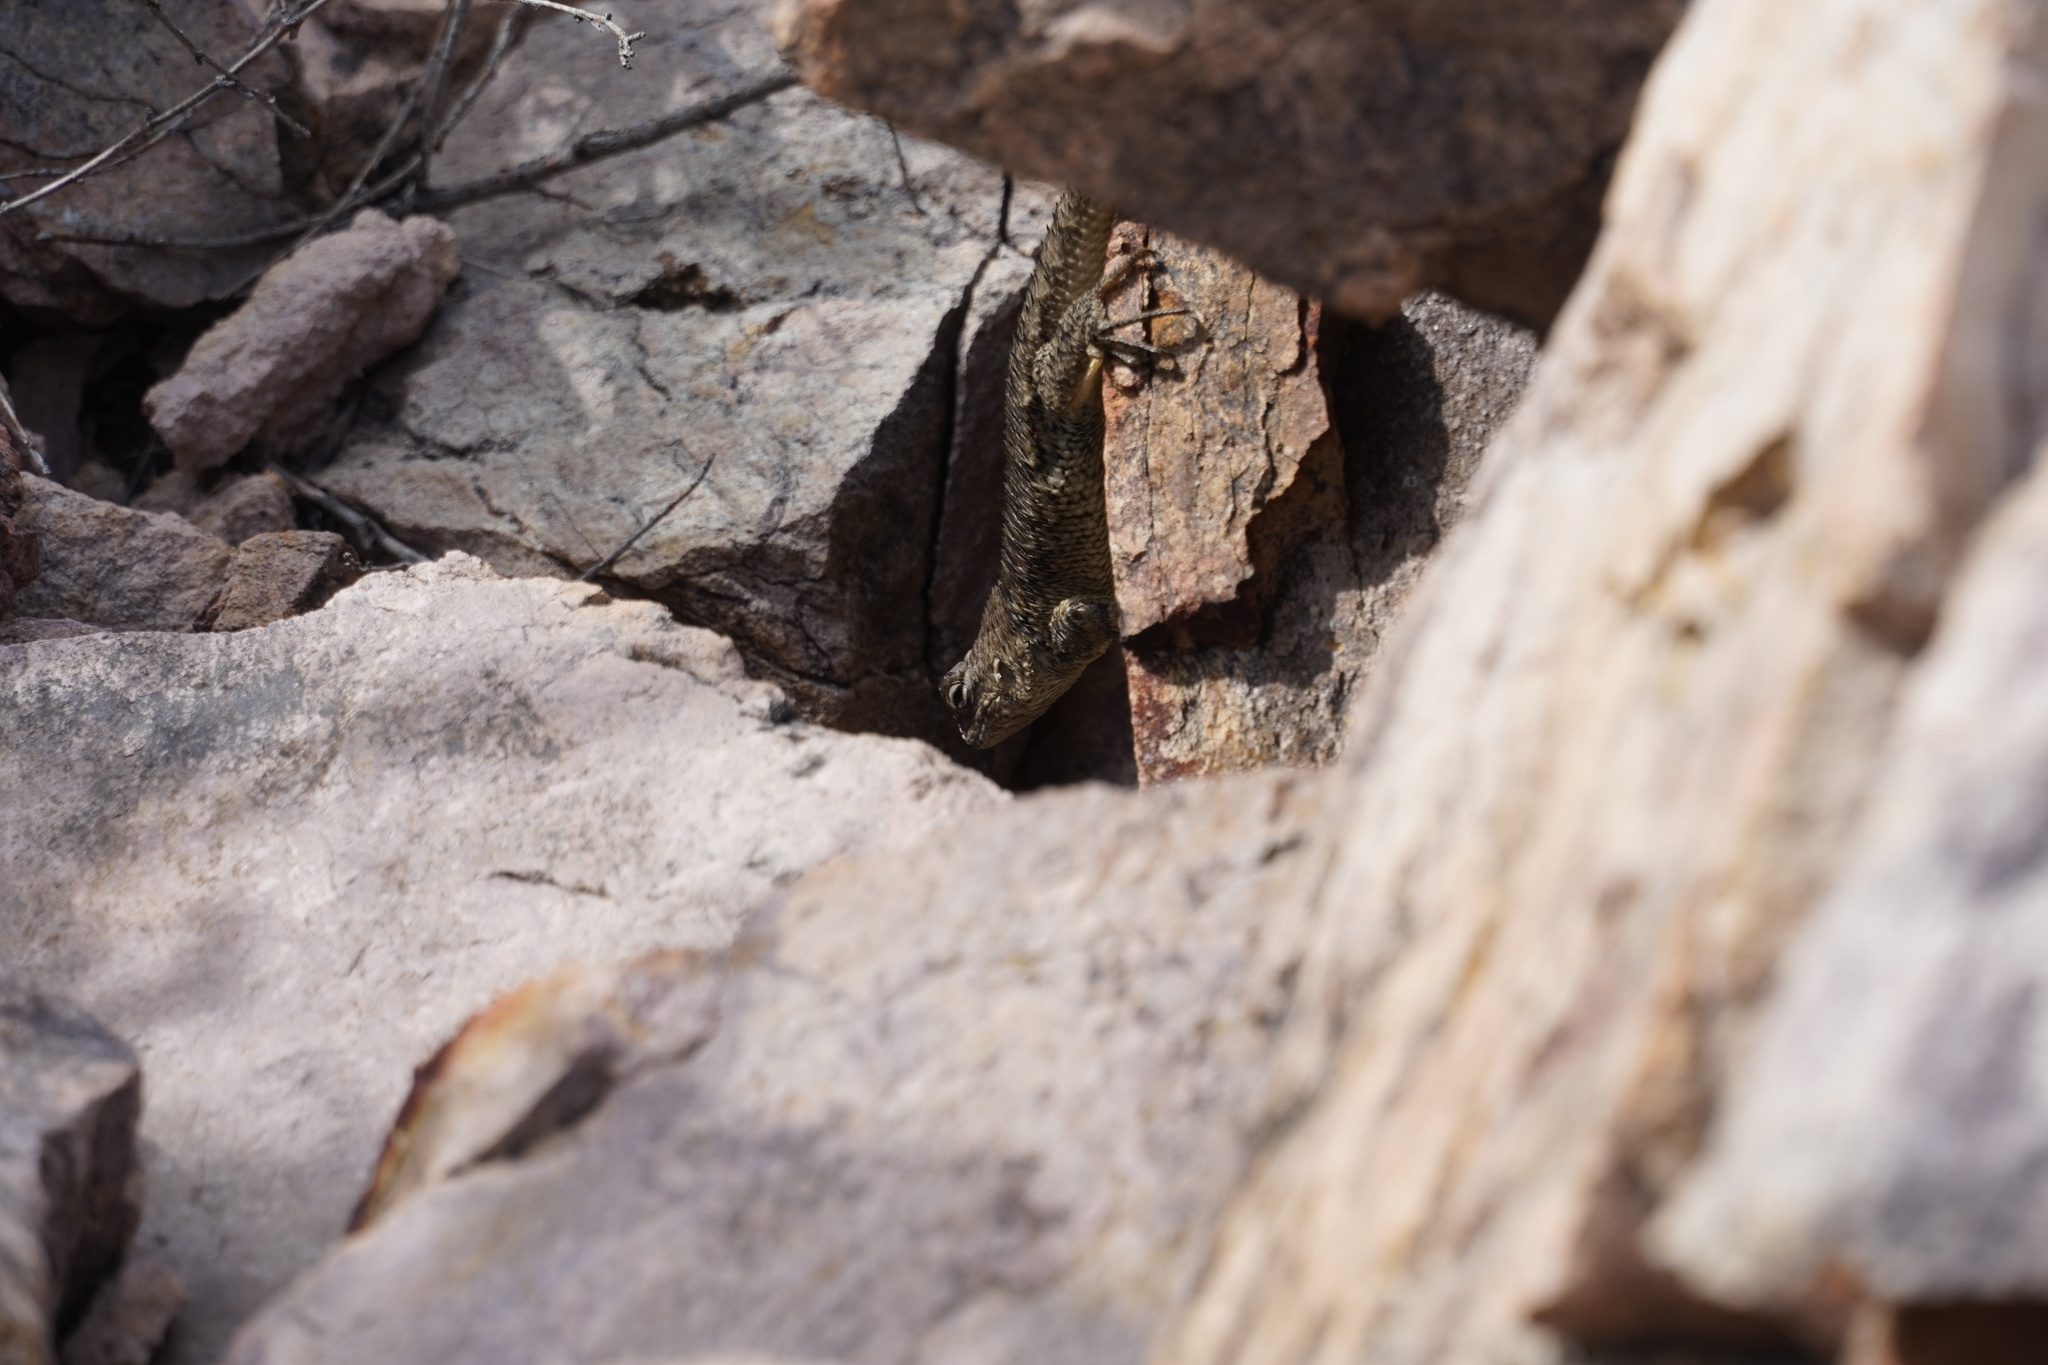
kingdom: Animalia
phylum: Chordata
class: Squamata
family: Phrynosomatidae
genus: Sceloporus
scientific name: Sceloporus clarkii
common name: Clark's spiny lizard
